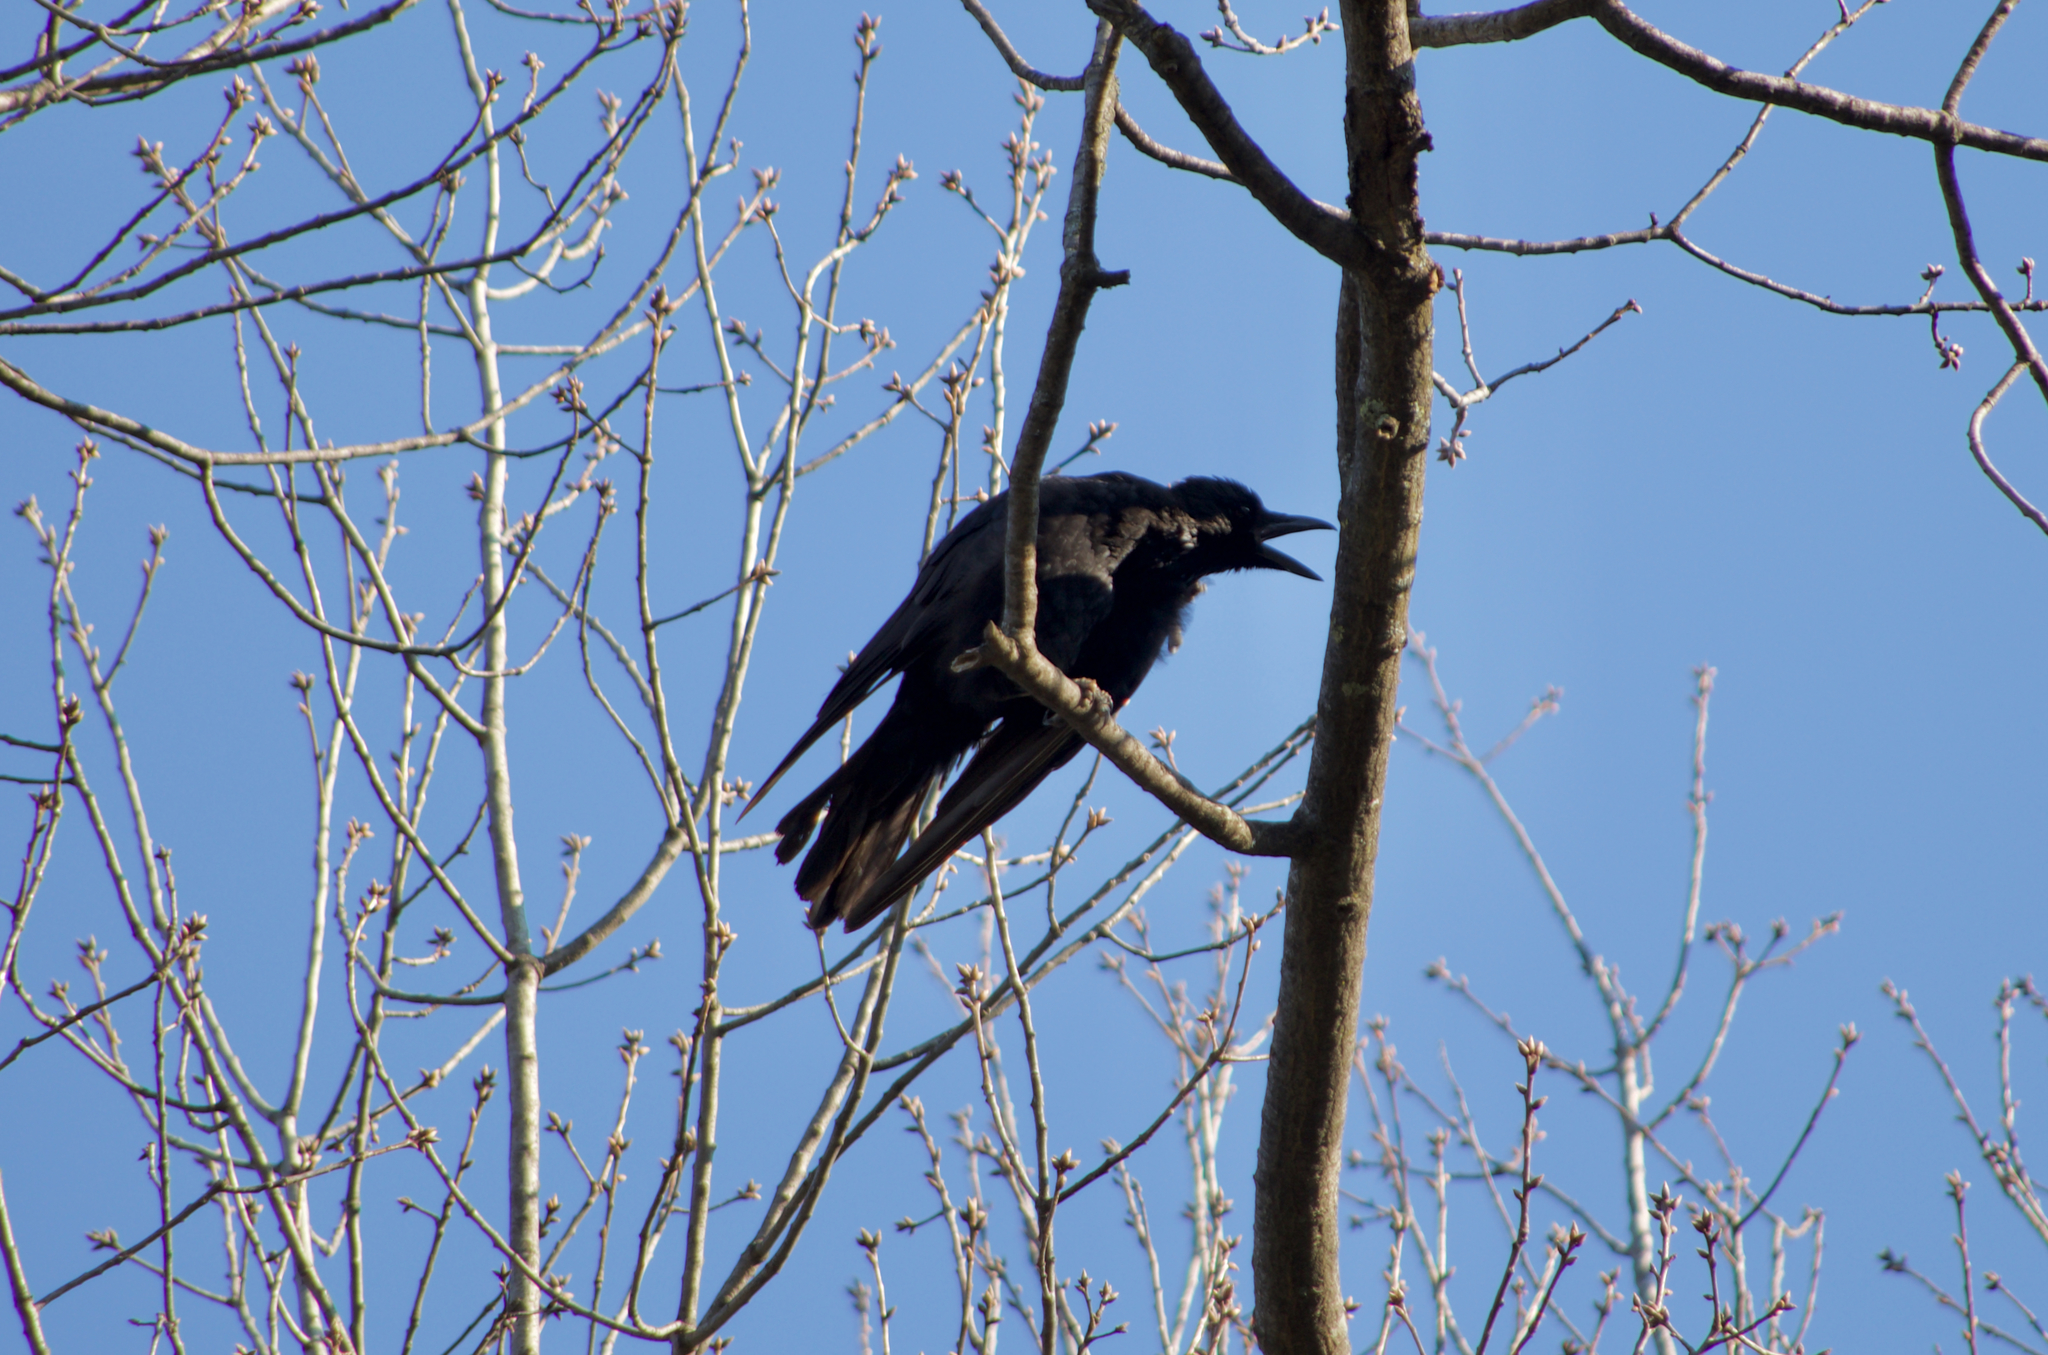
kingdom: Animalia
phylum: Chordata
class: Aves
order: Passeriformes
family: Corvidae
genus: Corvus
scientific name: Corvus corone
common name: Carrion crow
